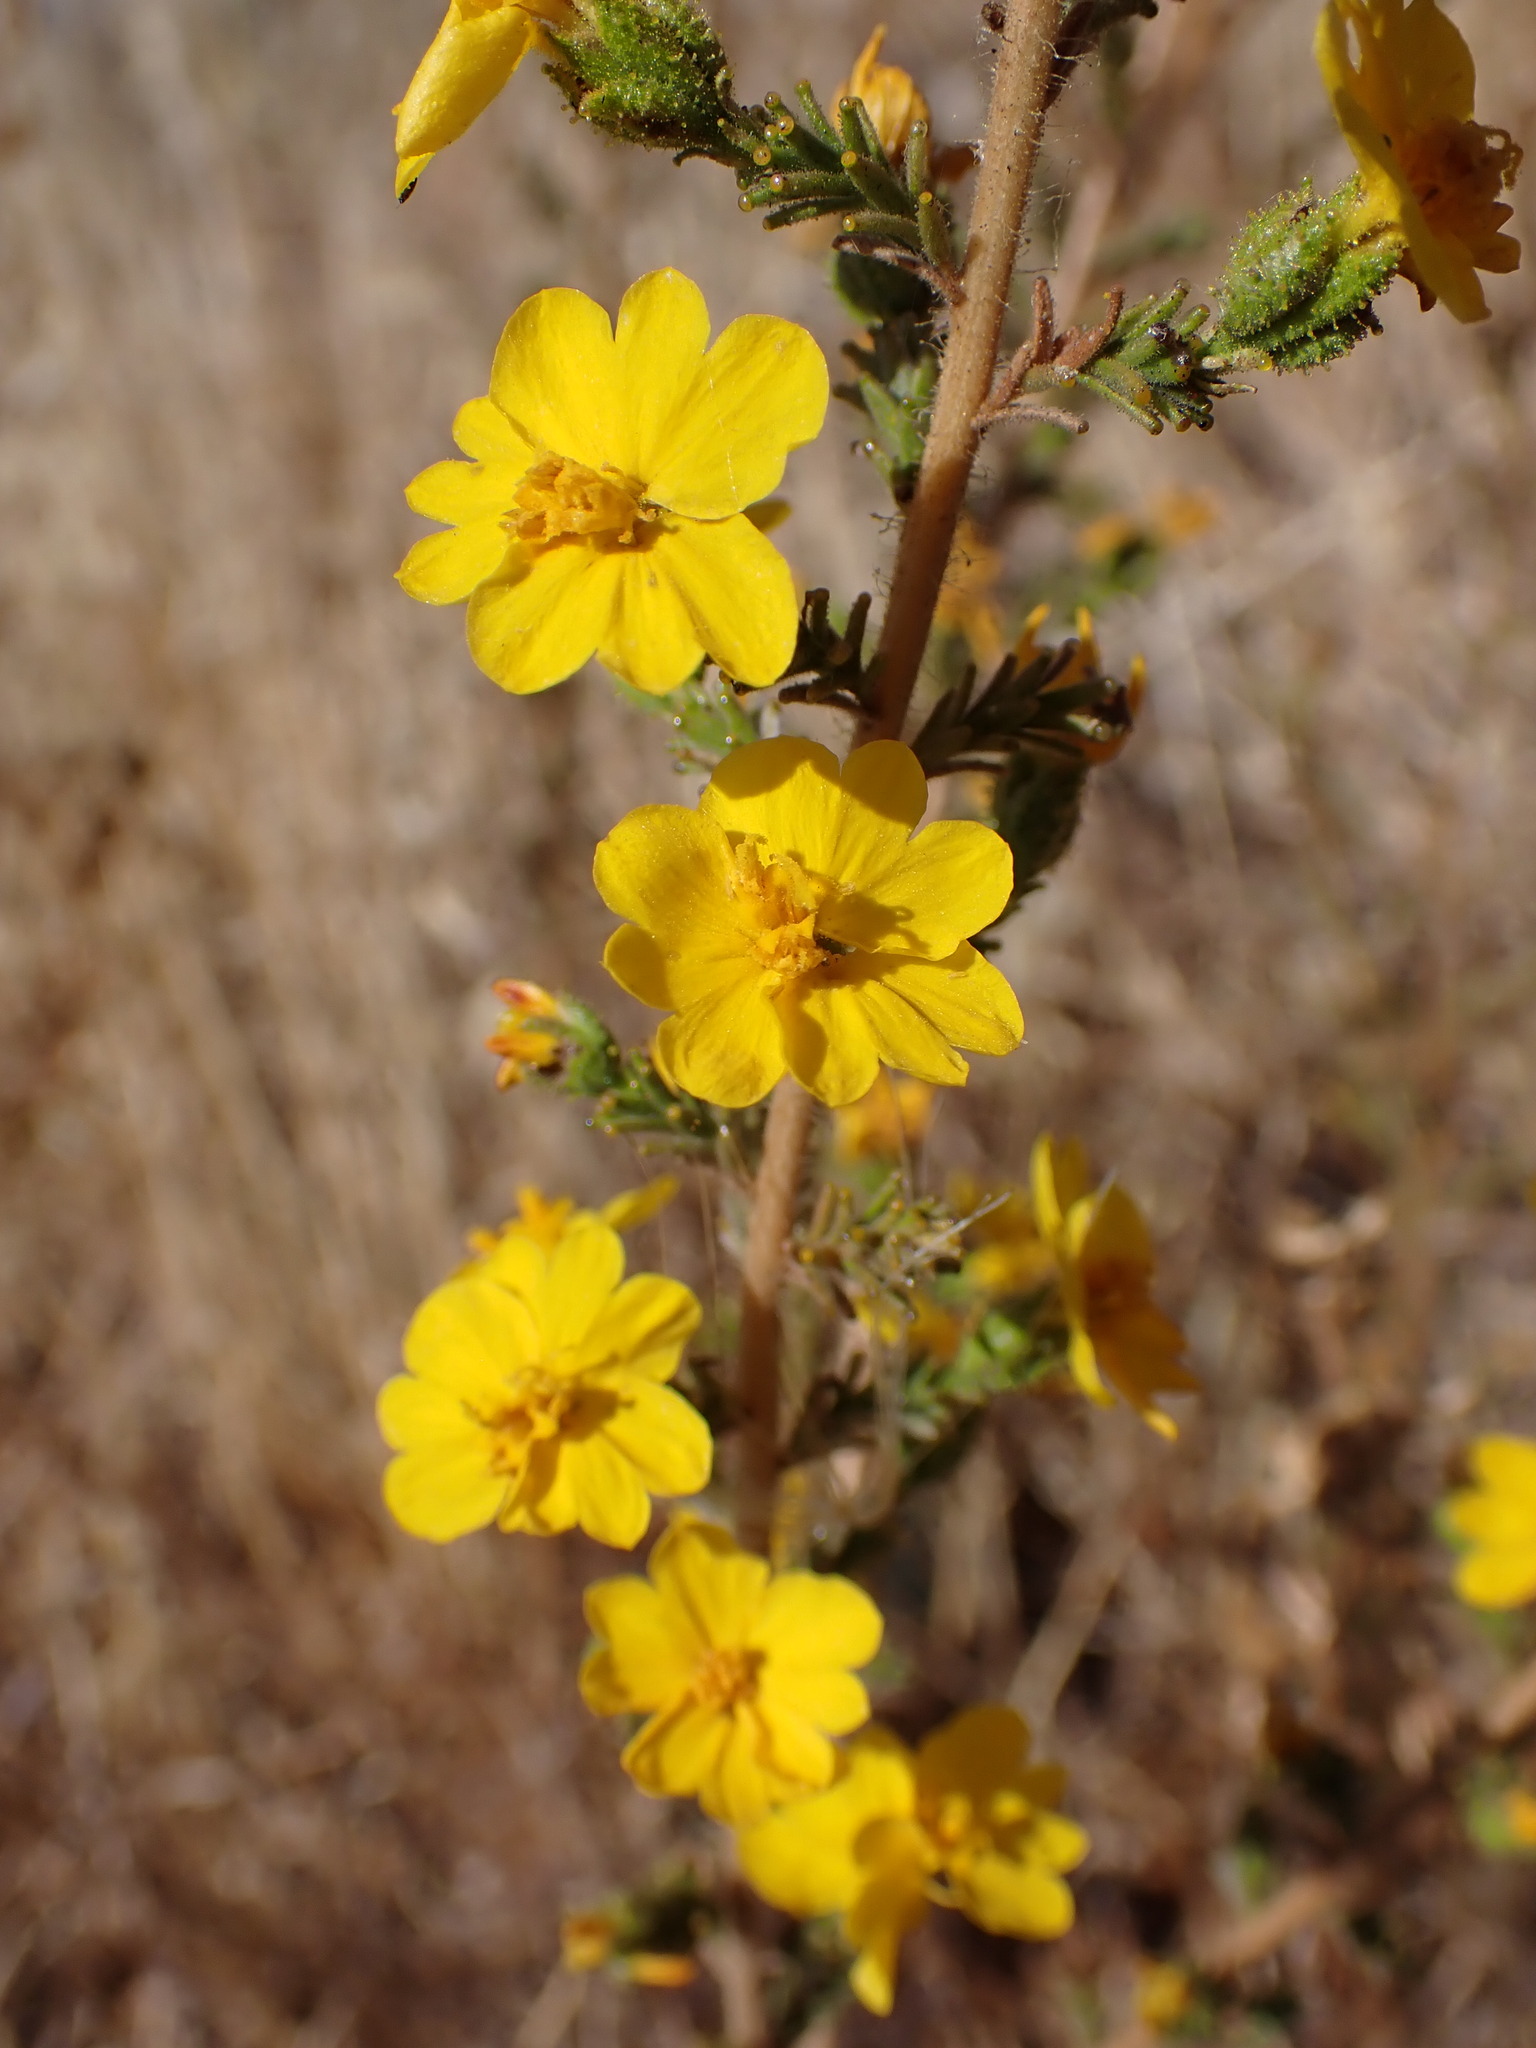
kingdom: Plantae
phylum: Tracheophyta
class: Magnoliopsida
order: Asterales
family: Asteraceae
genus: Holocarpha
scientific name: Holocarpha heermannii
